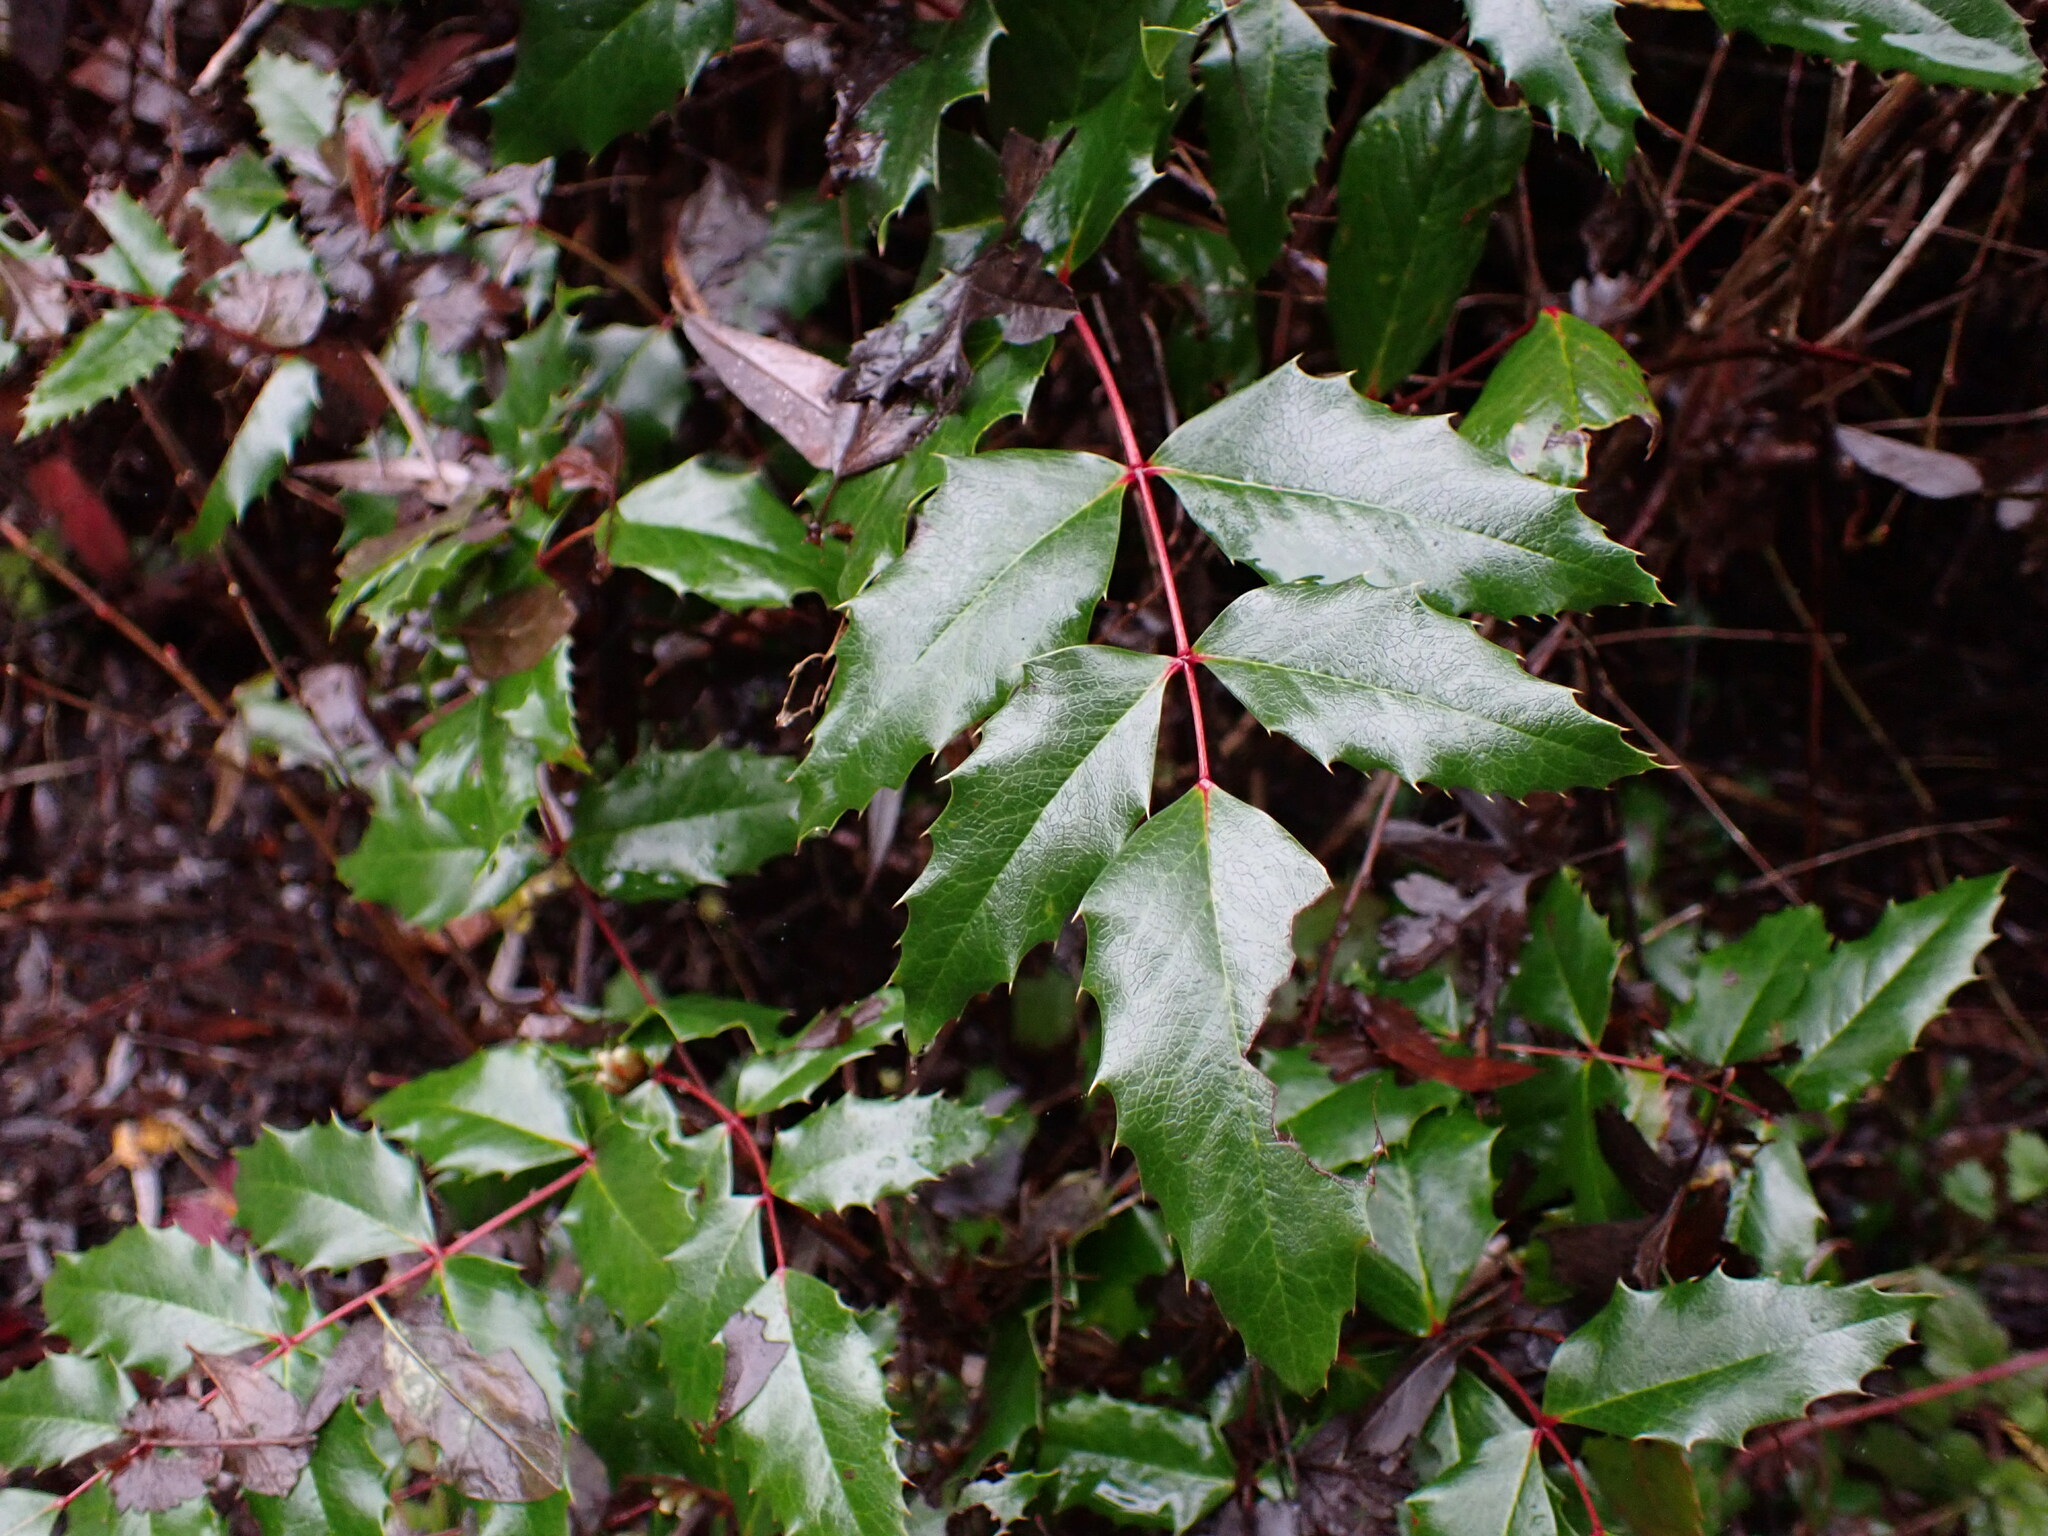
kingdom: Plantae
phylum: Tracheophyta
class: Magnoliopsida
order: Ranunculales
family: Berberidaceae
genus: Mahonia
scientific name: Mahonia aquifolium
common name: Oregon-grape
